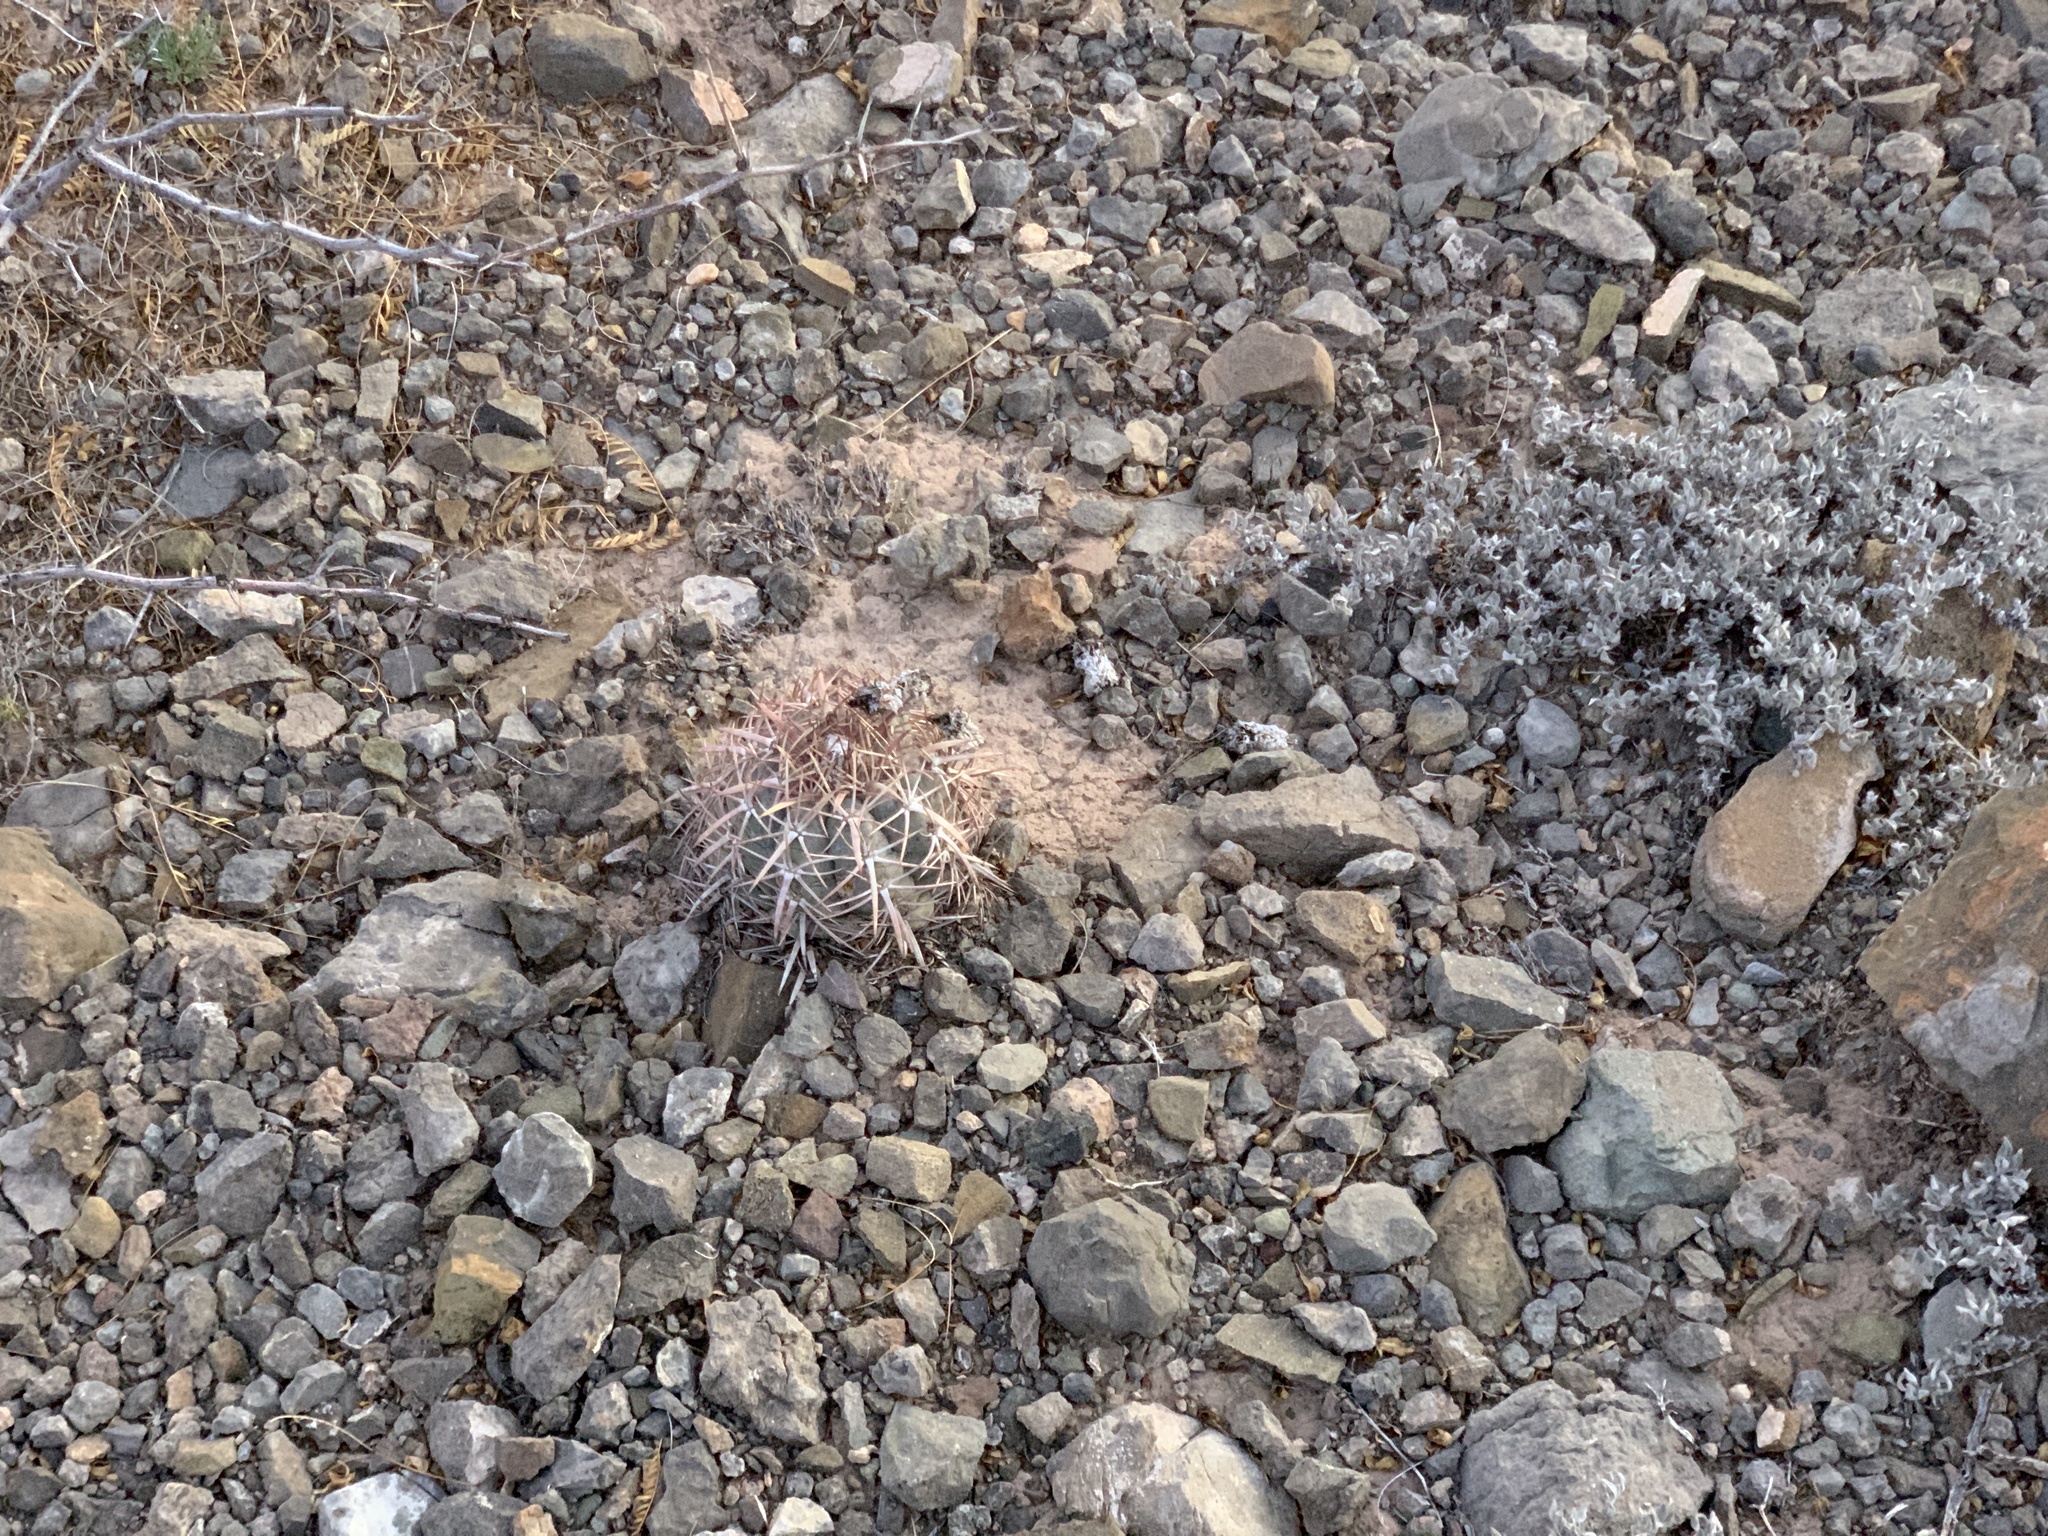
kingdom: Plantae
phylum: Tracheophyta
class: Magnoliopsida
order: Caryophyllales
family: Cactaceae
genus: Echinocactus
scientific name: Echinocactus horizonthalonius
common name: Devilshead
